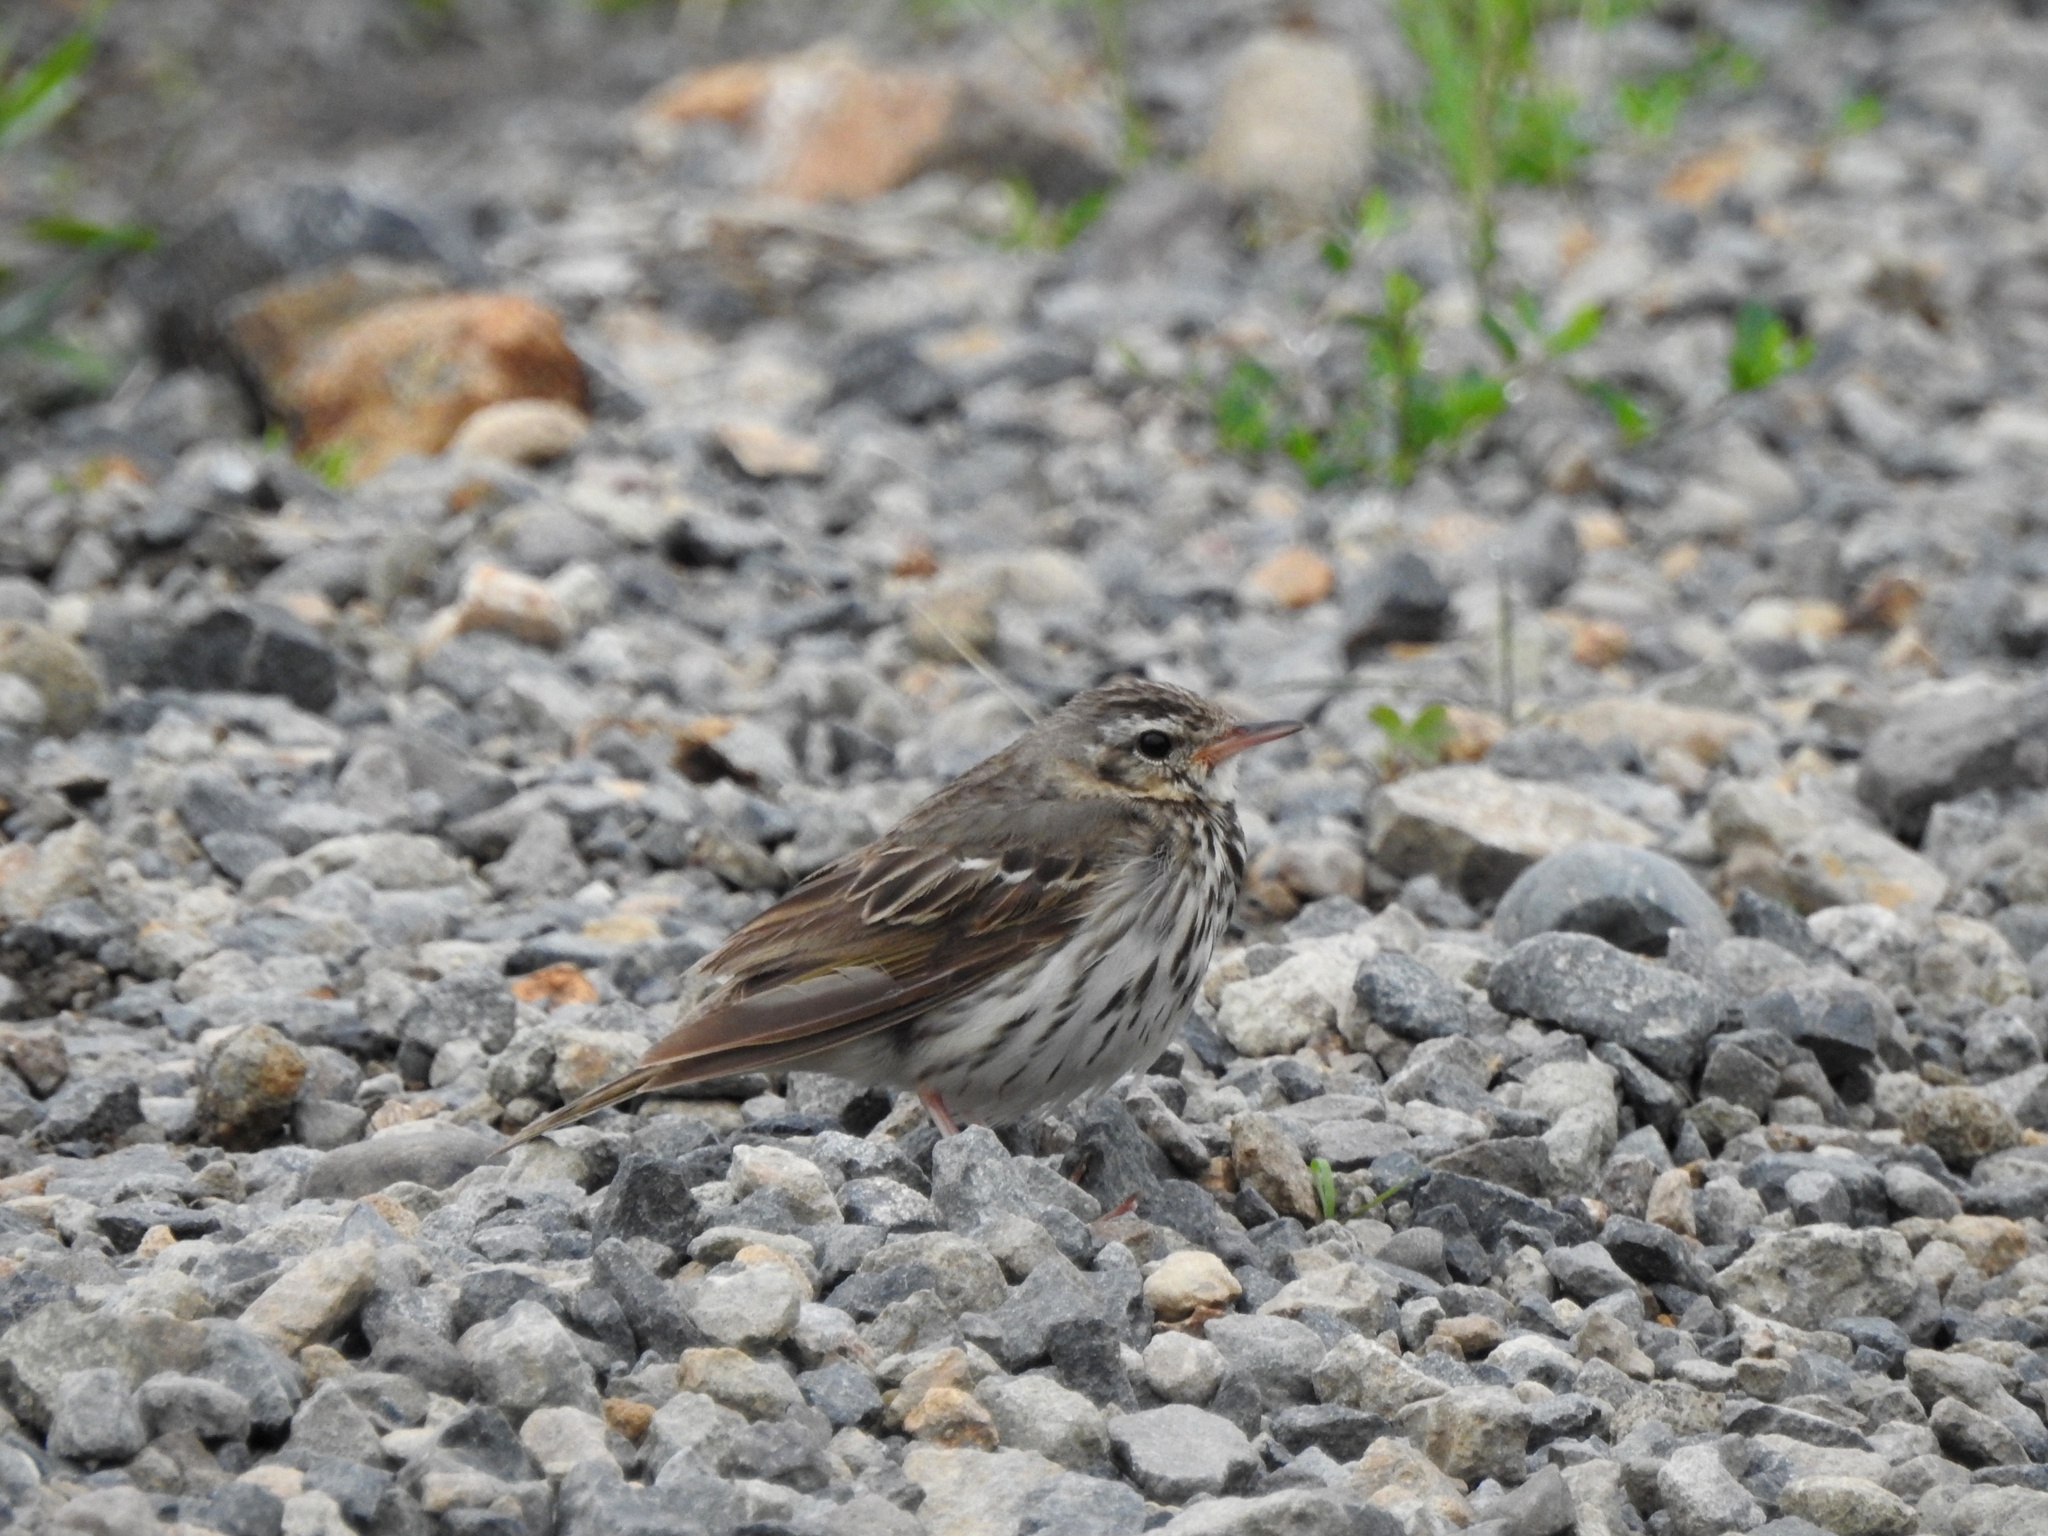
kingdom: Animalia
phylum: Chordata
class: Aves
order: Passeriformes
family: Motacillidae
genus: Anthus
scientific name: Anthus hodgsoni
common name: Olive-backed pipit
